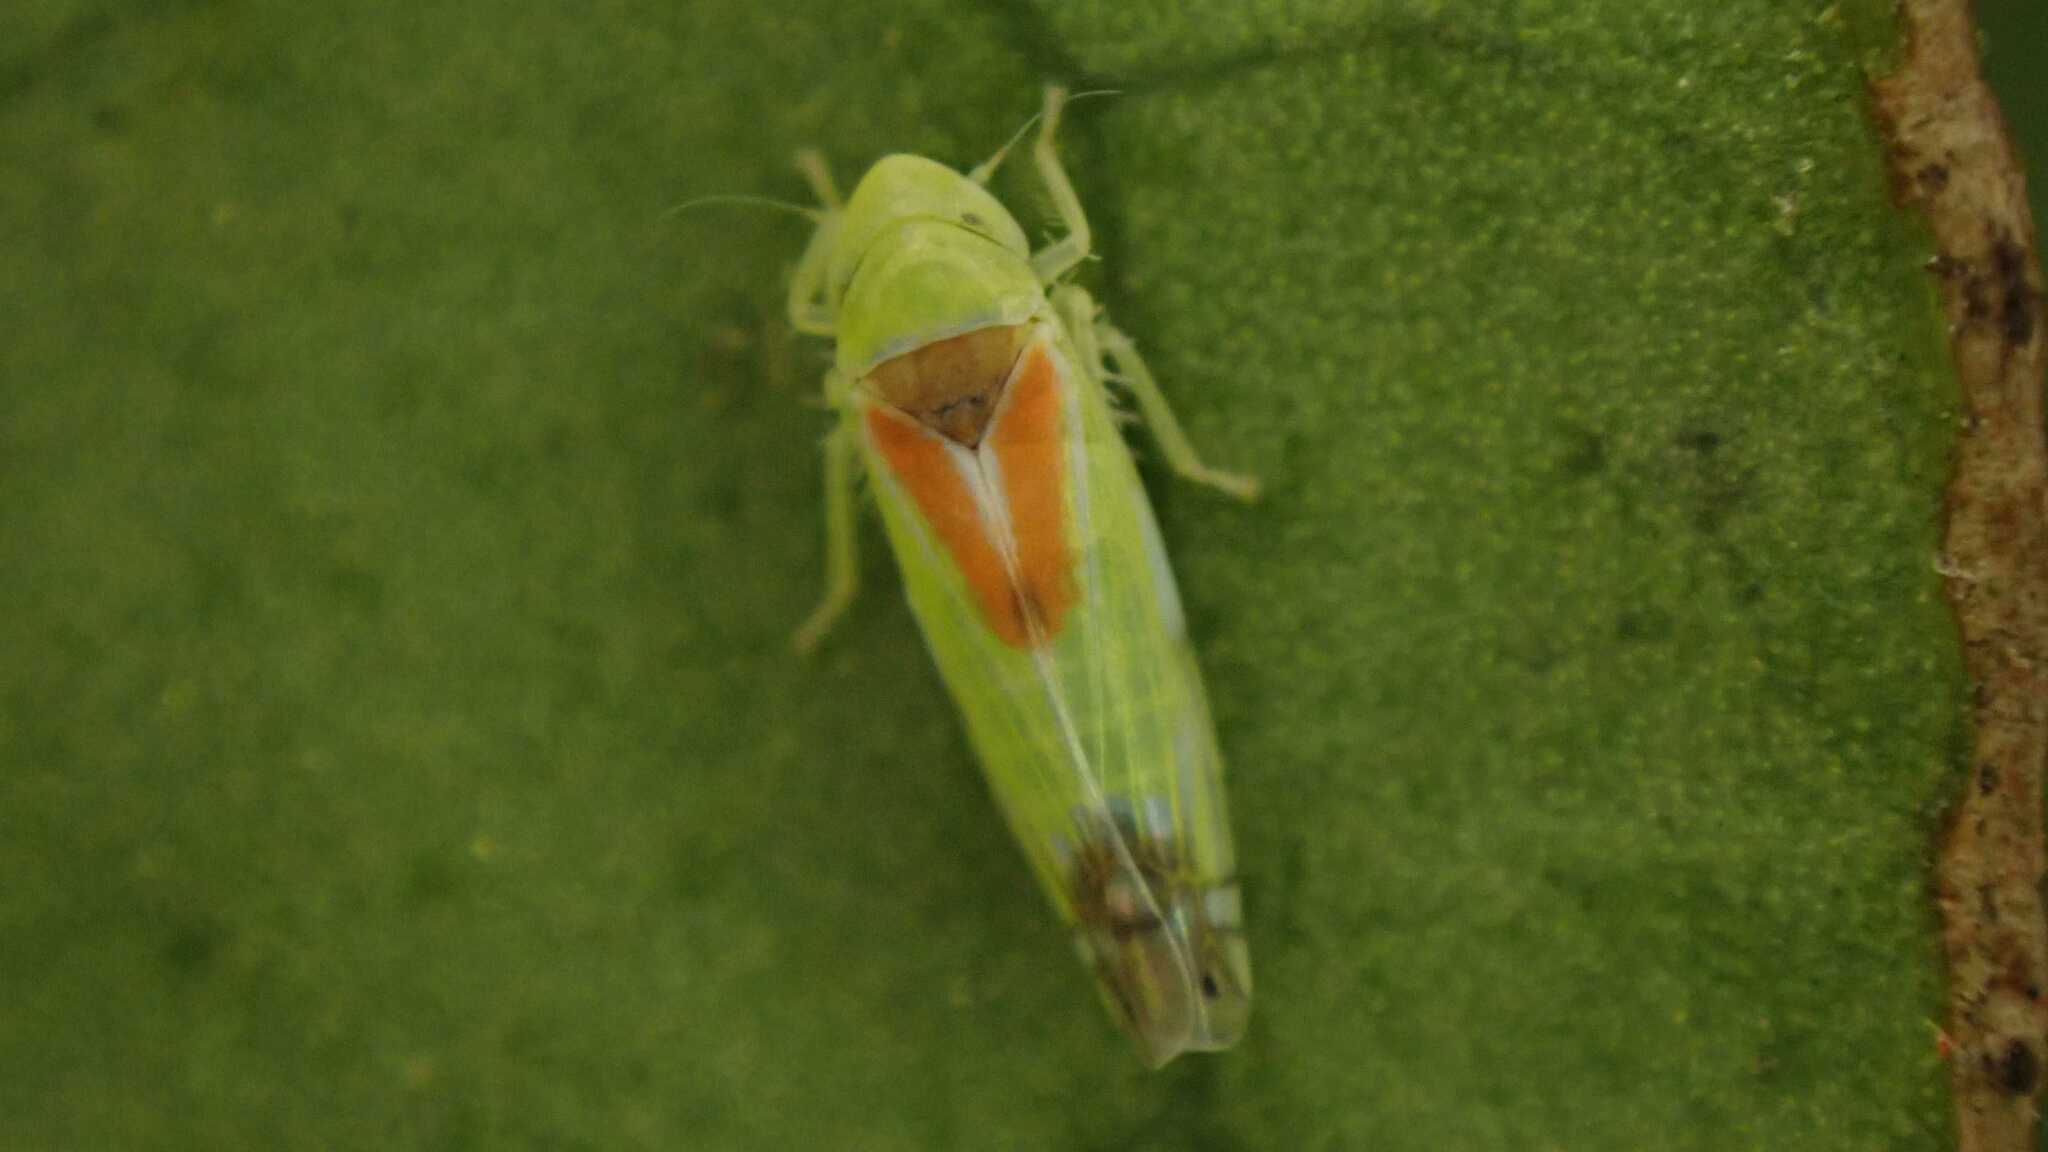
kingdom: Animalia
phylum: Arthropoda
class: Insecta
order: Hemiptera
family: Cicadellidae
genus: Zyginella
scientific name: Zyginella pulchra
